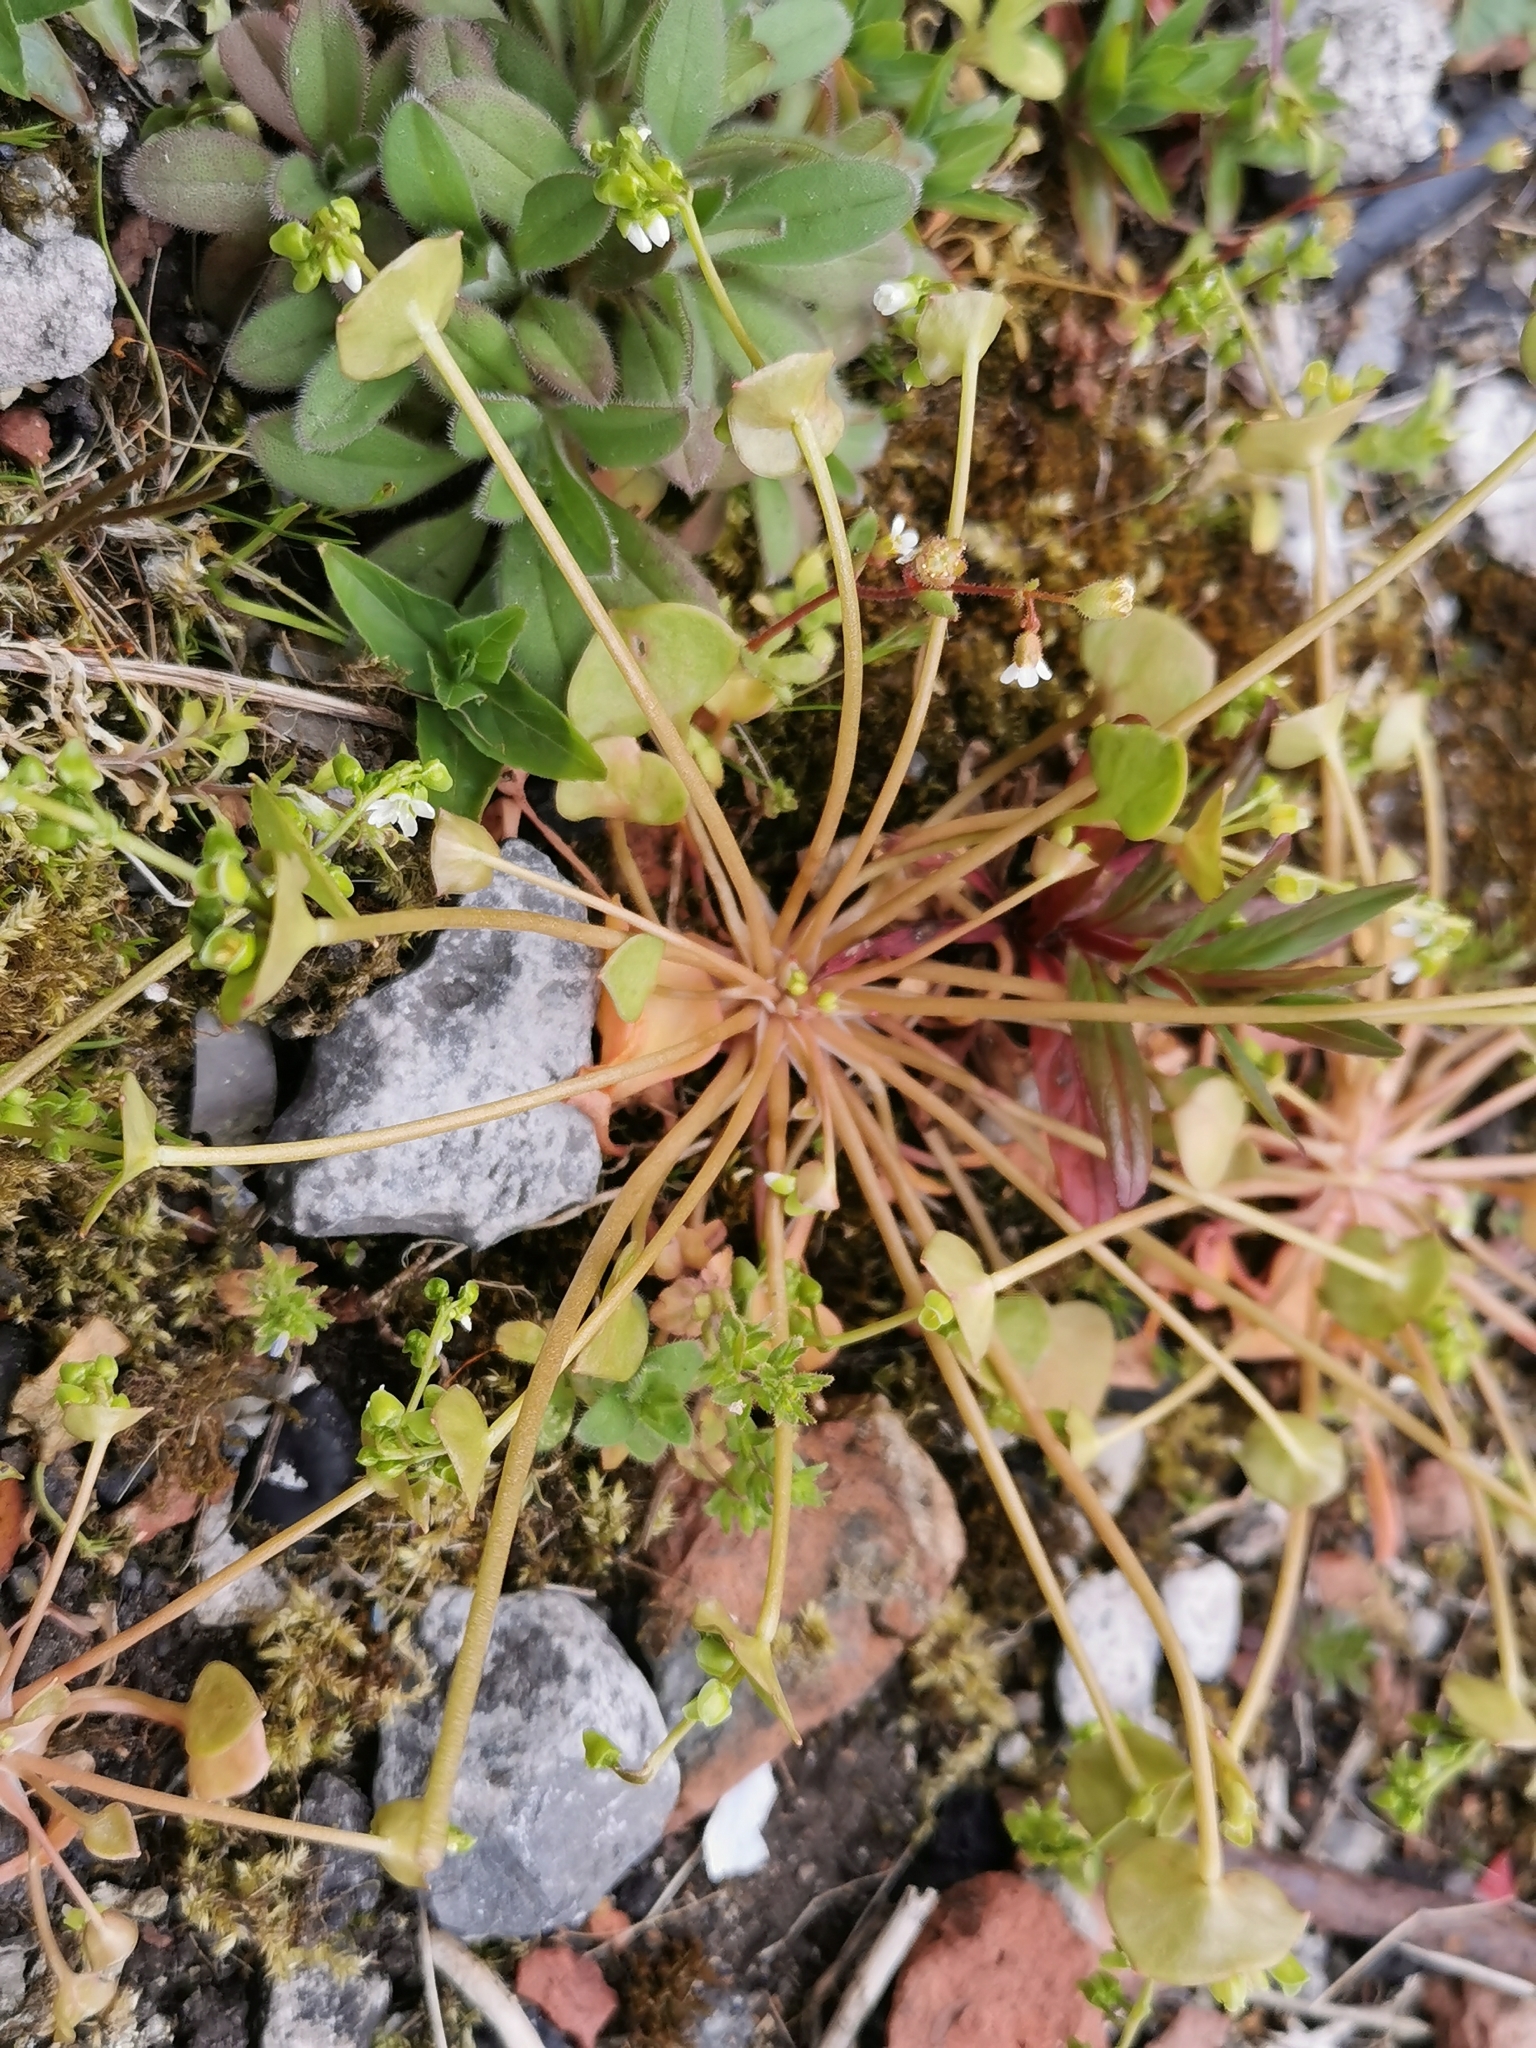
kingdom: Plantae
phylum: Tracheophyta
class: Magnoliopsida
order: Caryophyllales
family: Montiaceae
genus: Claytonia
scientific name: Claytonia perfoliata
